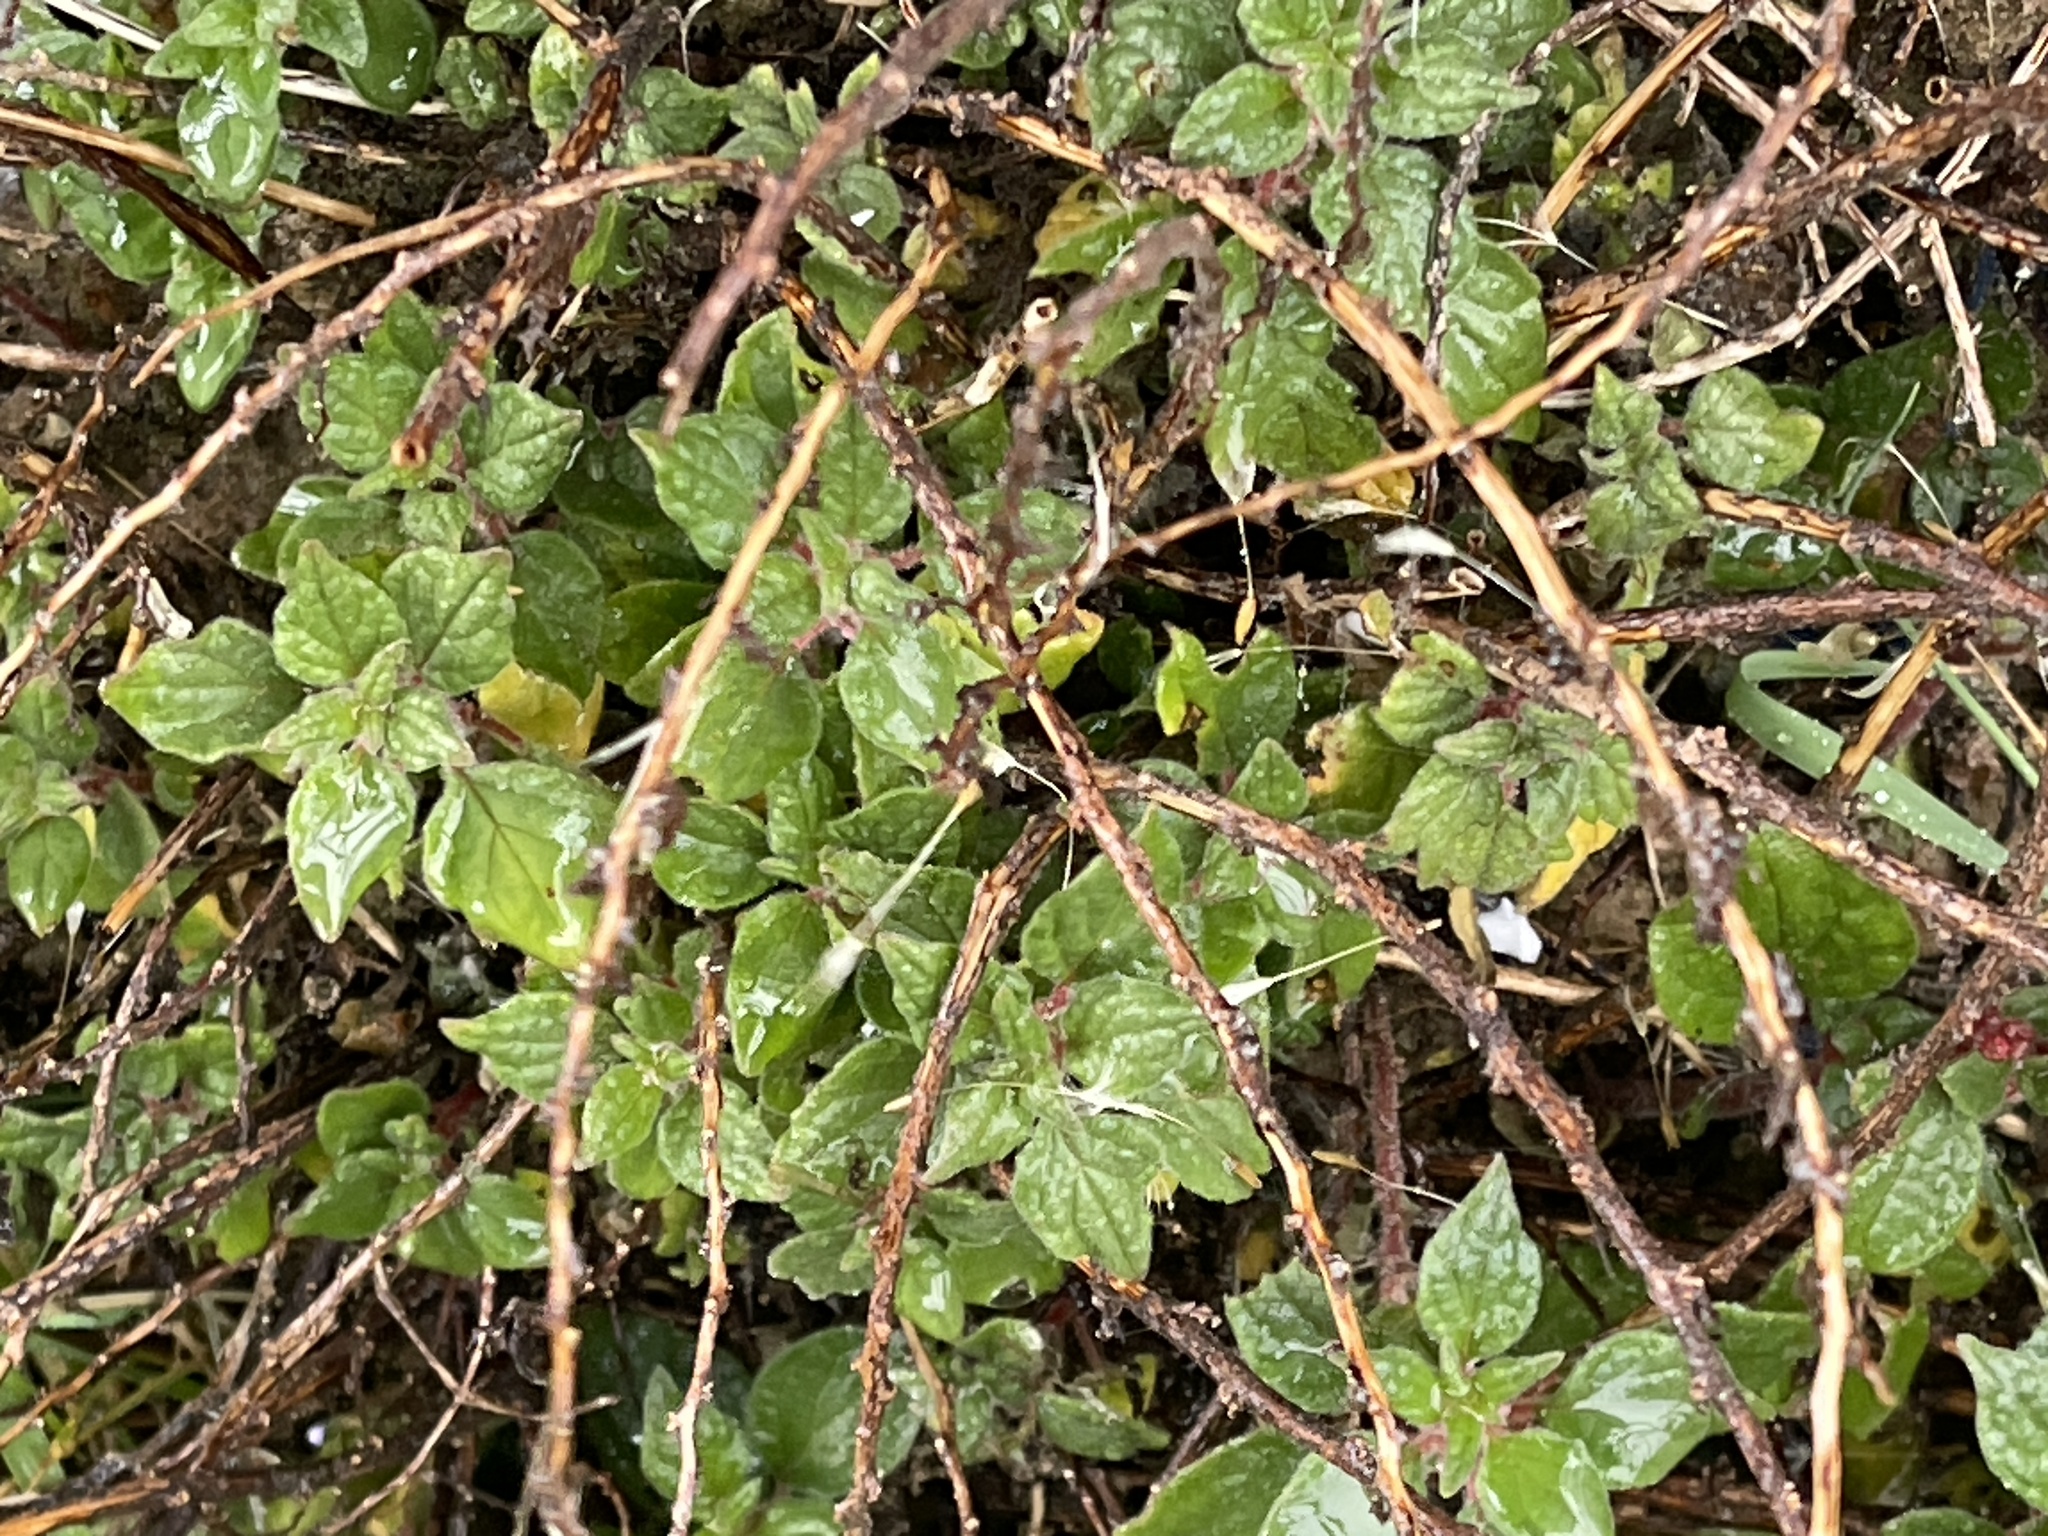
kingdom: Plantae
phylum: Tracheophyta
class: Magnoliopsida
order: Rosales
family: Urticaceae
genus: Parietaria
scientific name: Parietaria judaica
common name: Pellitory-of-the-wall
